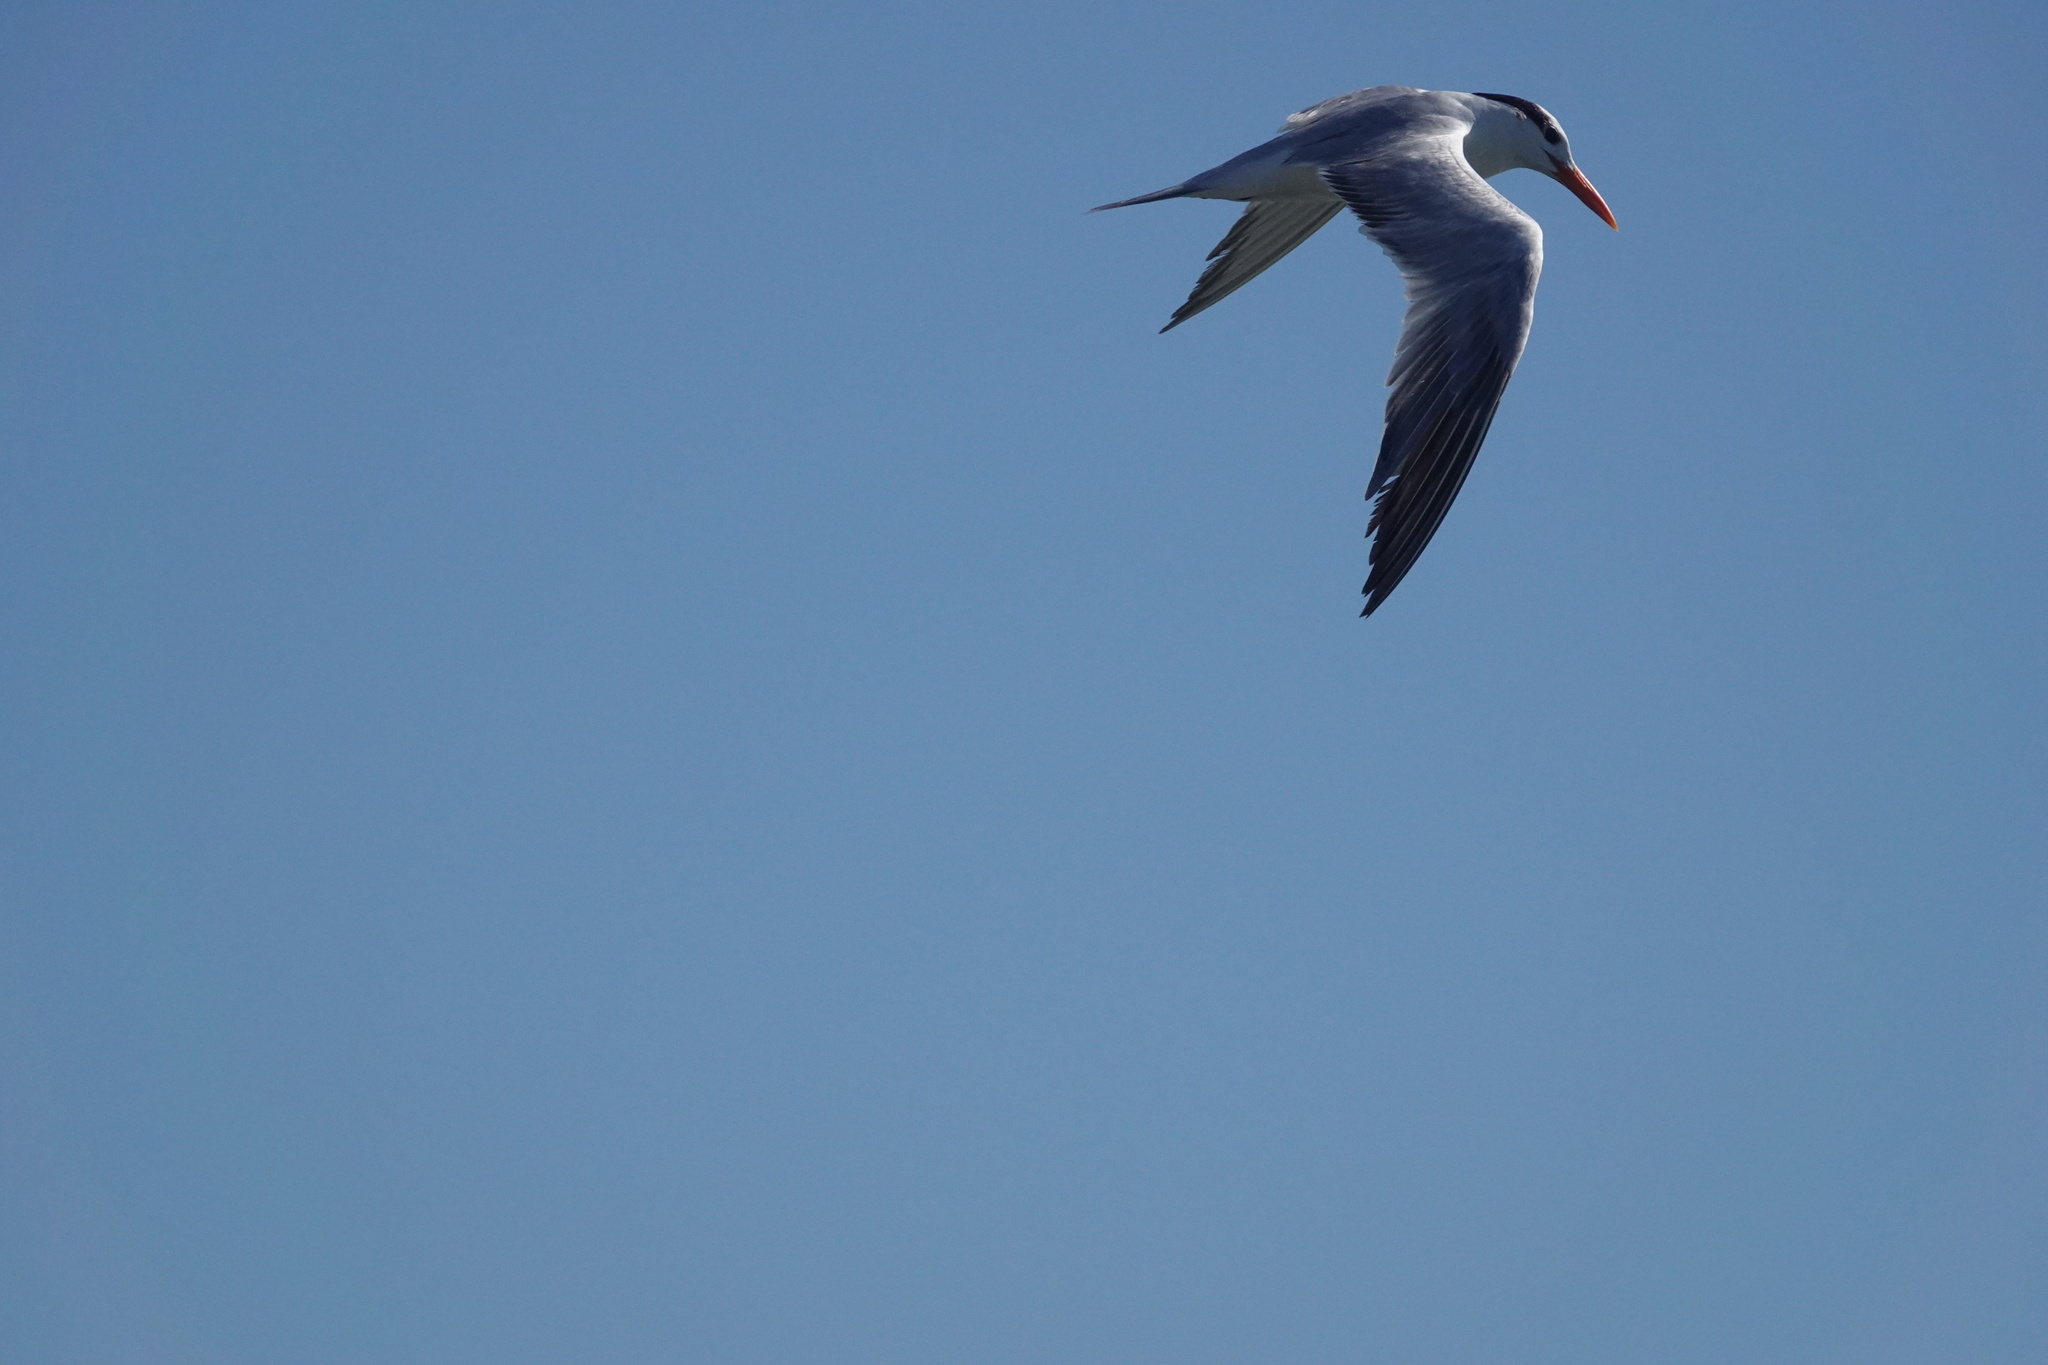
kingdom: Animalia
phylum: Chordata
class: Aves
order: Charadriiformes
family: Laridae
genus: Thalasseus
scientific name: Thalasseus maximus
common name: Royal tern
